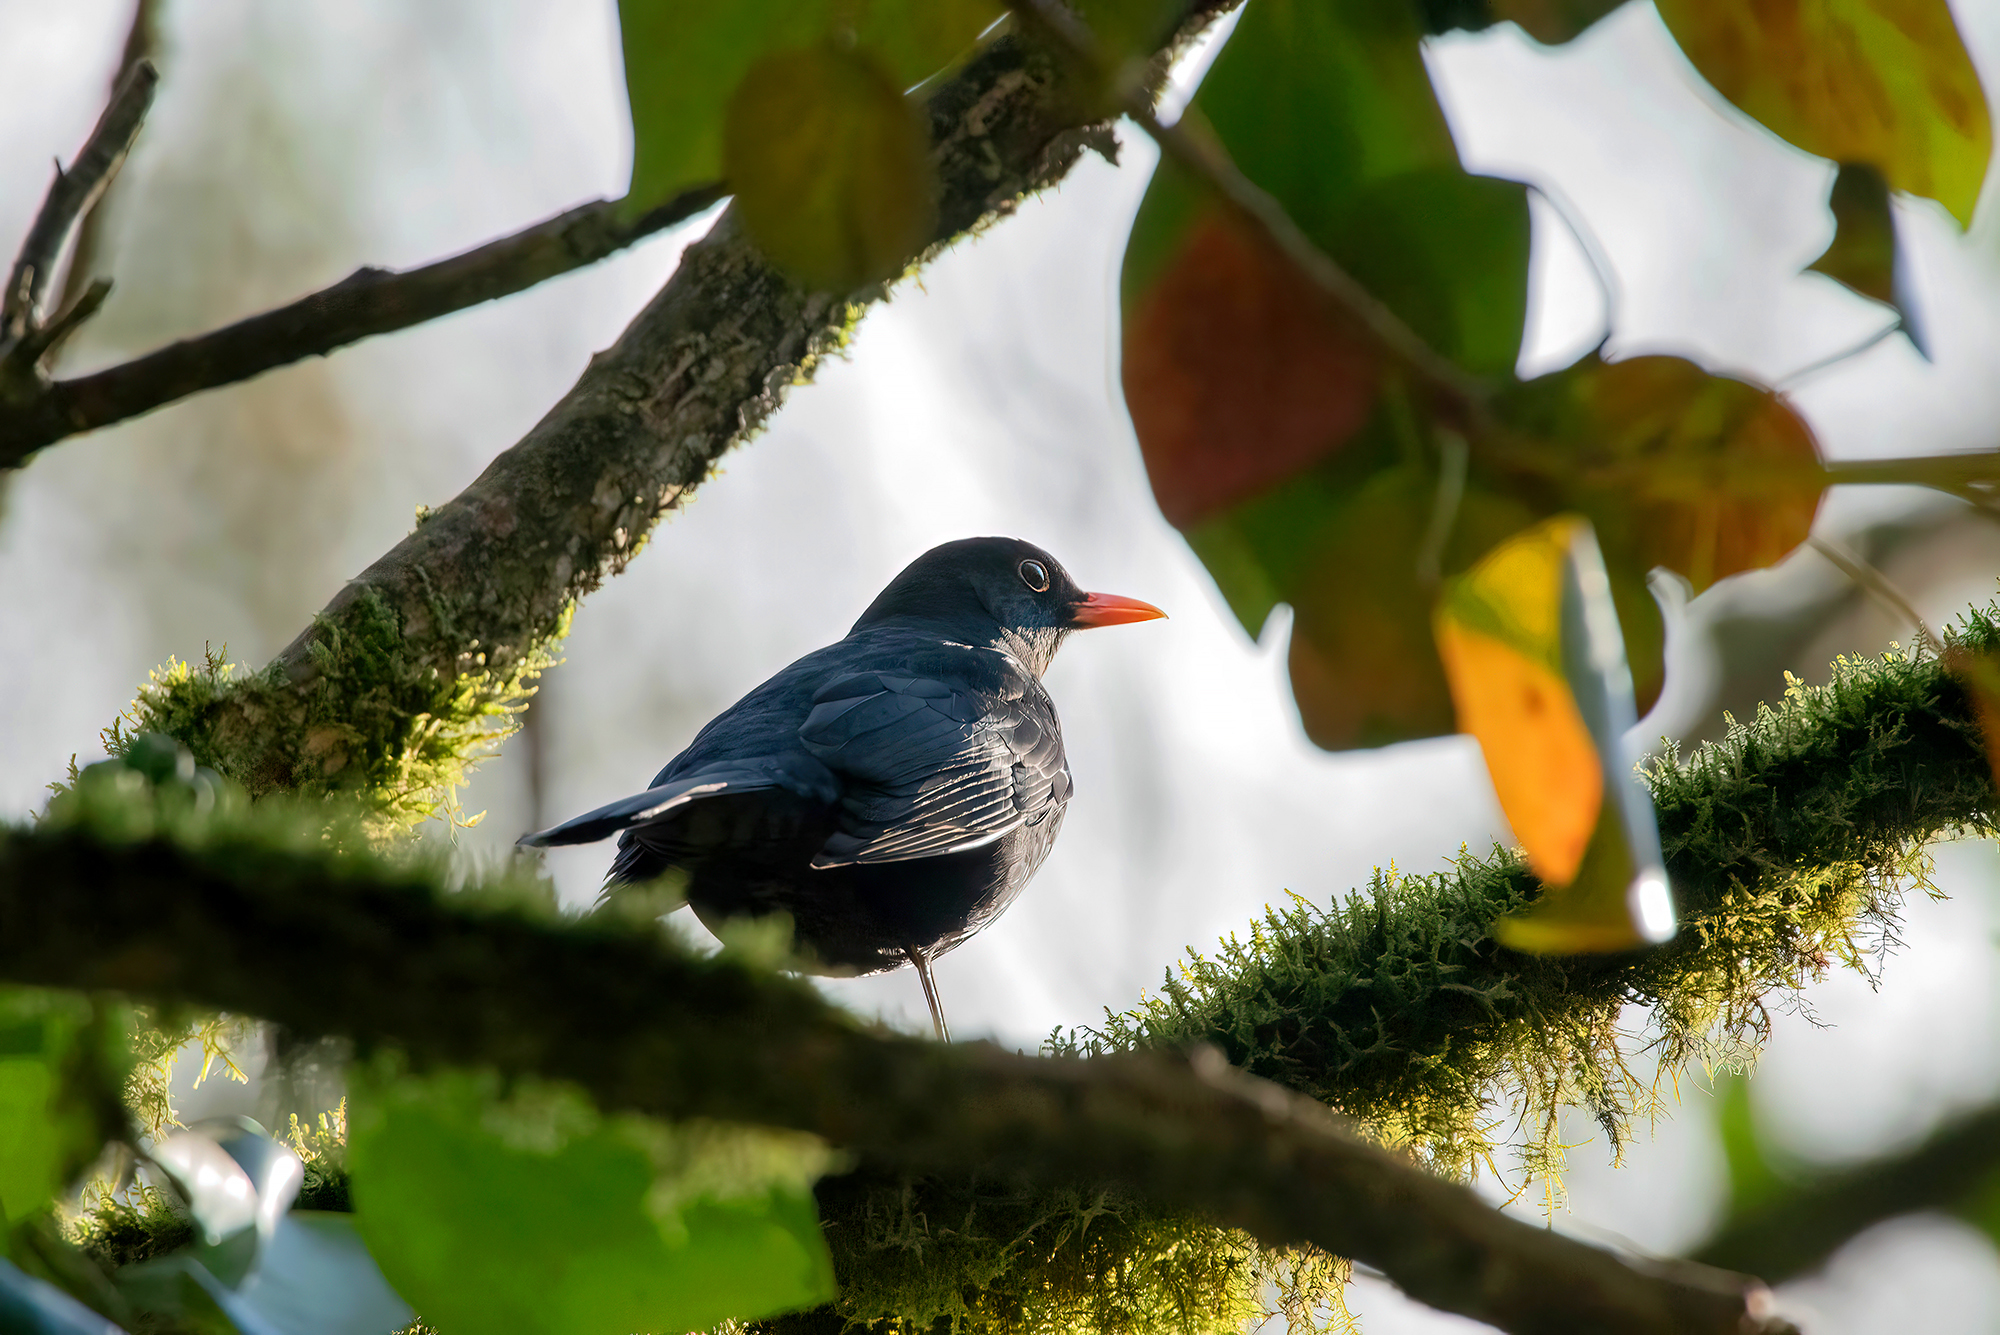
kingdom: Animalia
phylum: Chordata
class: Aves
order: Passeriformes
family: Turdidae
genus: Turdus
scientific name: Turdus merula
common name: Common blackbird
